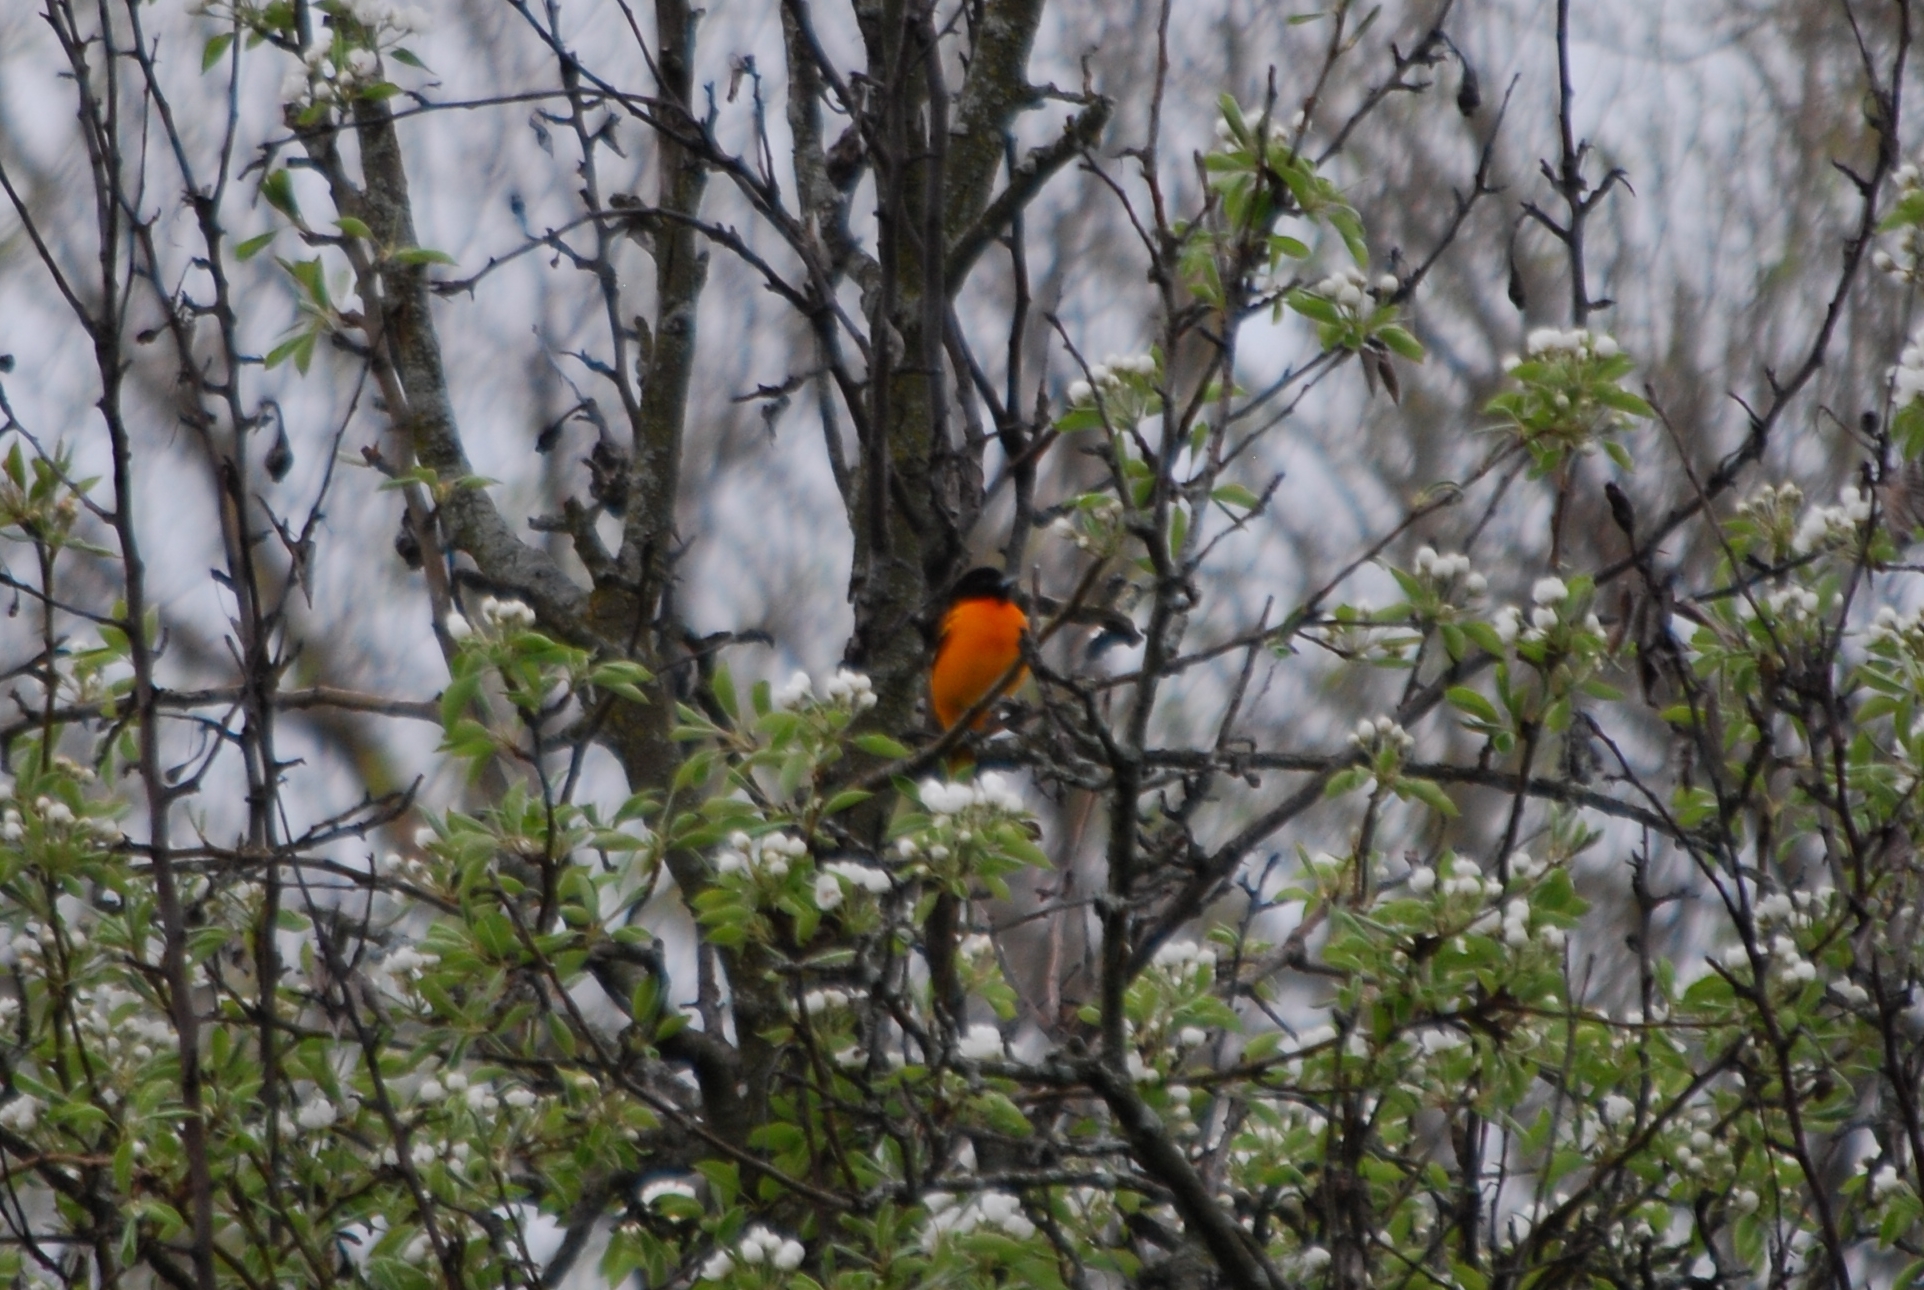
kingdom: Animalia
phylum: Chordata
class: Aves
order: Passeriformes
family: Icteridae
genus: Icterus
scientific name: Icterus galbula
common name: Baltimore oriole
